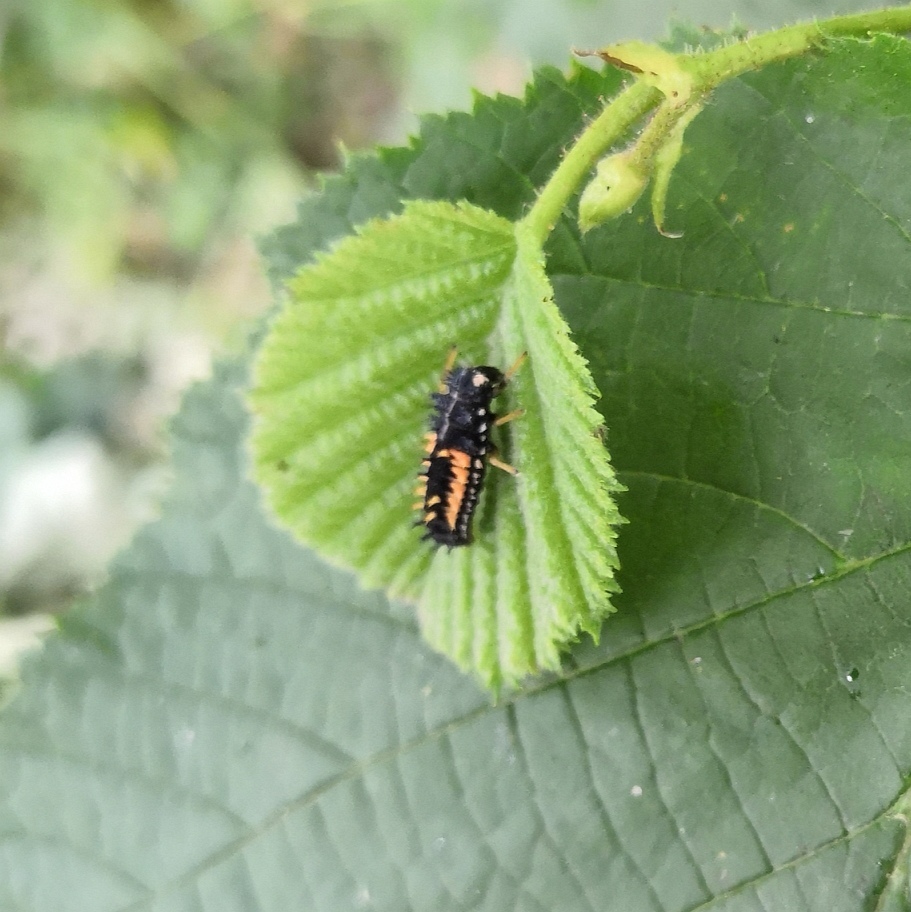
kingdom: Animalia
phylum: Arthropoda
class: Insecta
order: Coleoptera
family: Coccinellidae
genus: Harmonia
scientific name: Harmonia axyridis
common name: Harlequin ladybird
